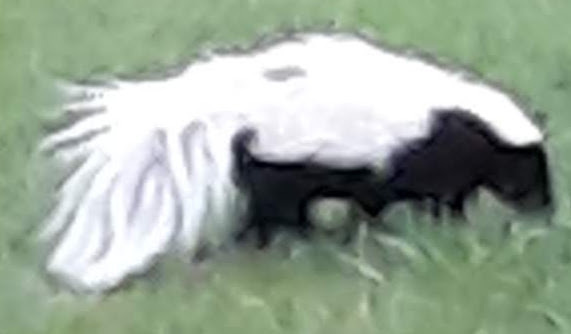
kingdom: Animalia
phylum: Chordata
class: Mammalia
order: Carnivora
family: Mephitidae
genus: Mephitis
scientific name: Mephitis mephitis
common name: Striped skunk
